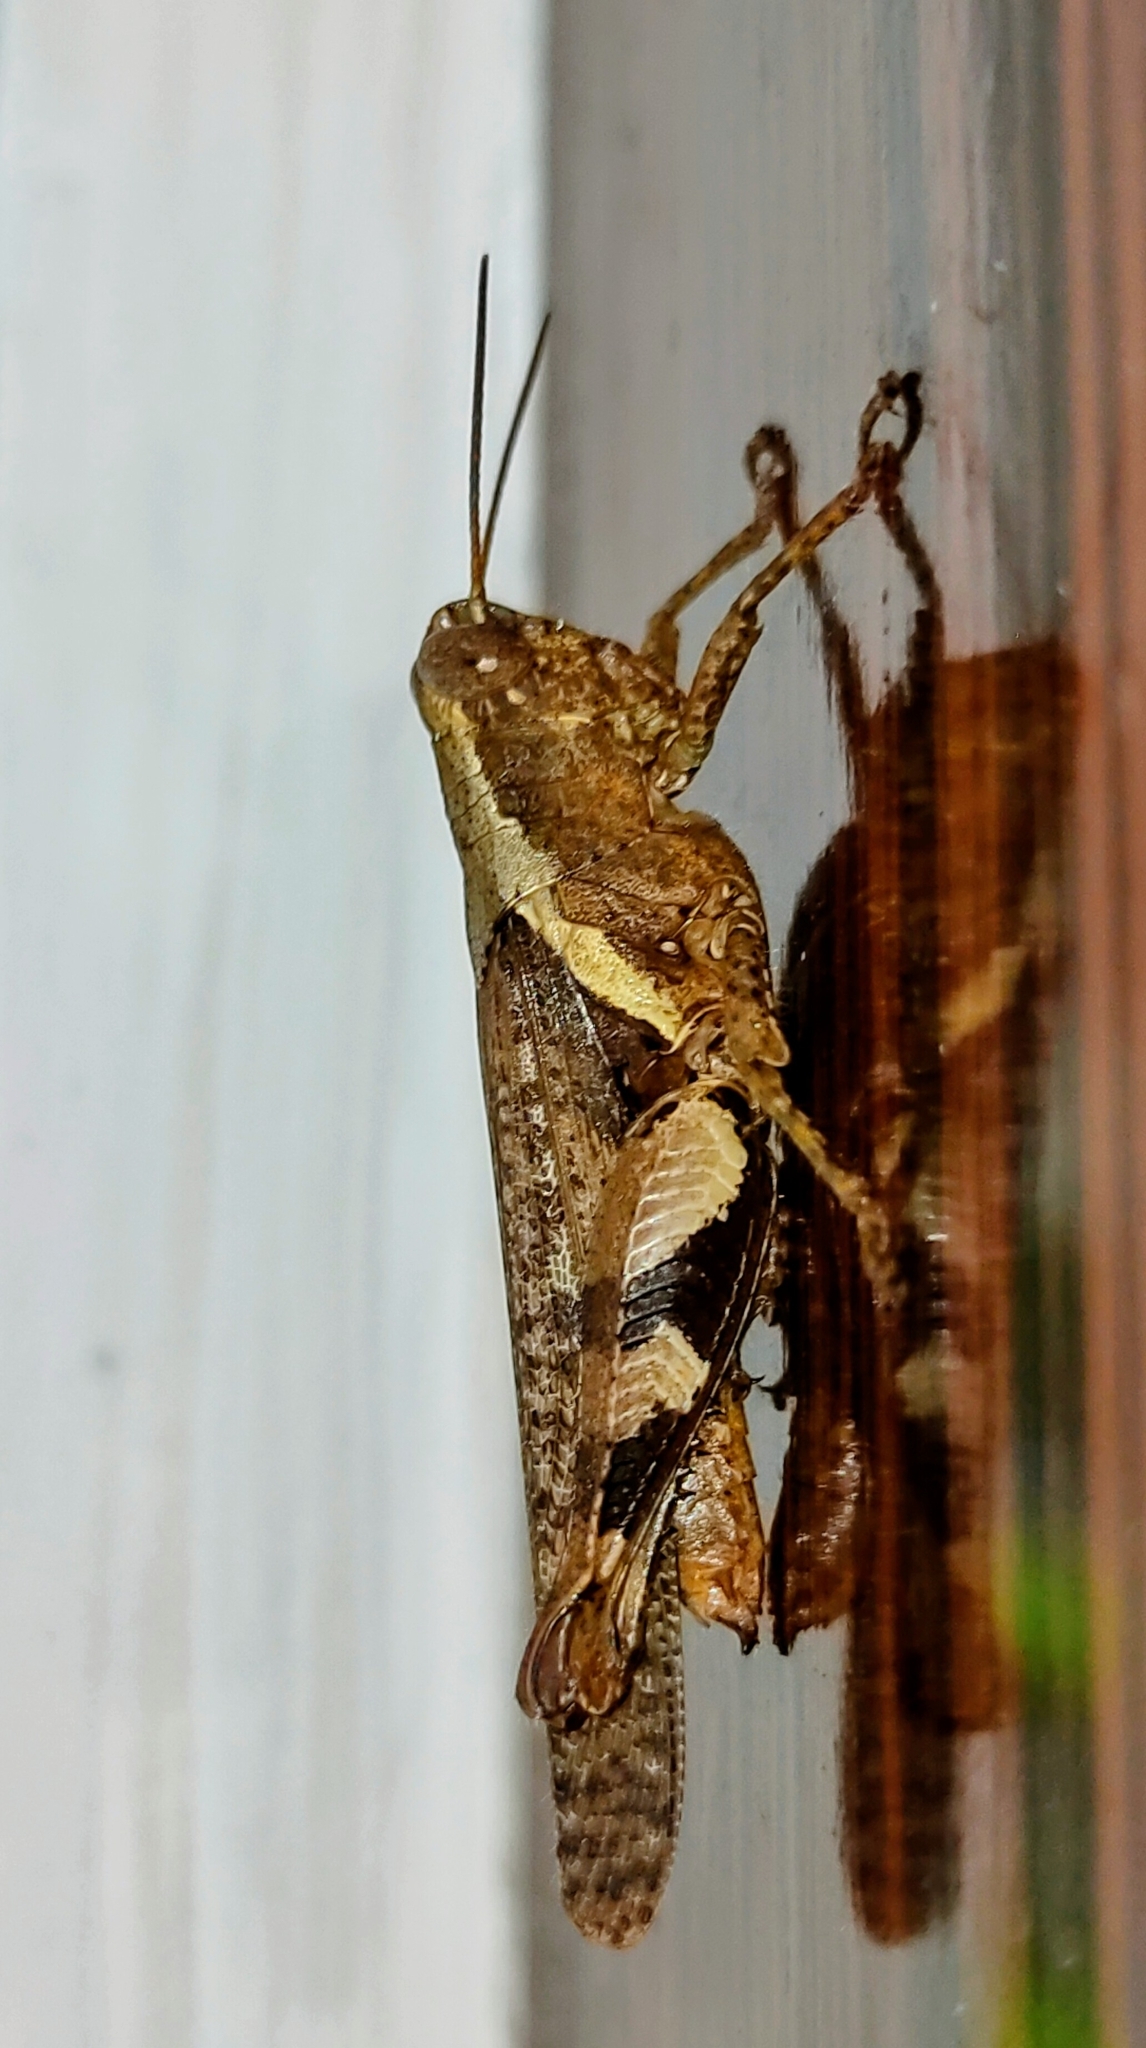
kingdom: Animalia
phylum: Arthropoda
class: Insecta
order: Orthoptera
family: Acrididae
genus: Xenocatantops
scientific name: Xenocatantops humile
